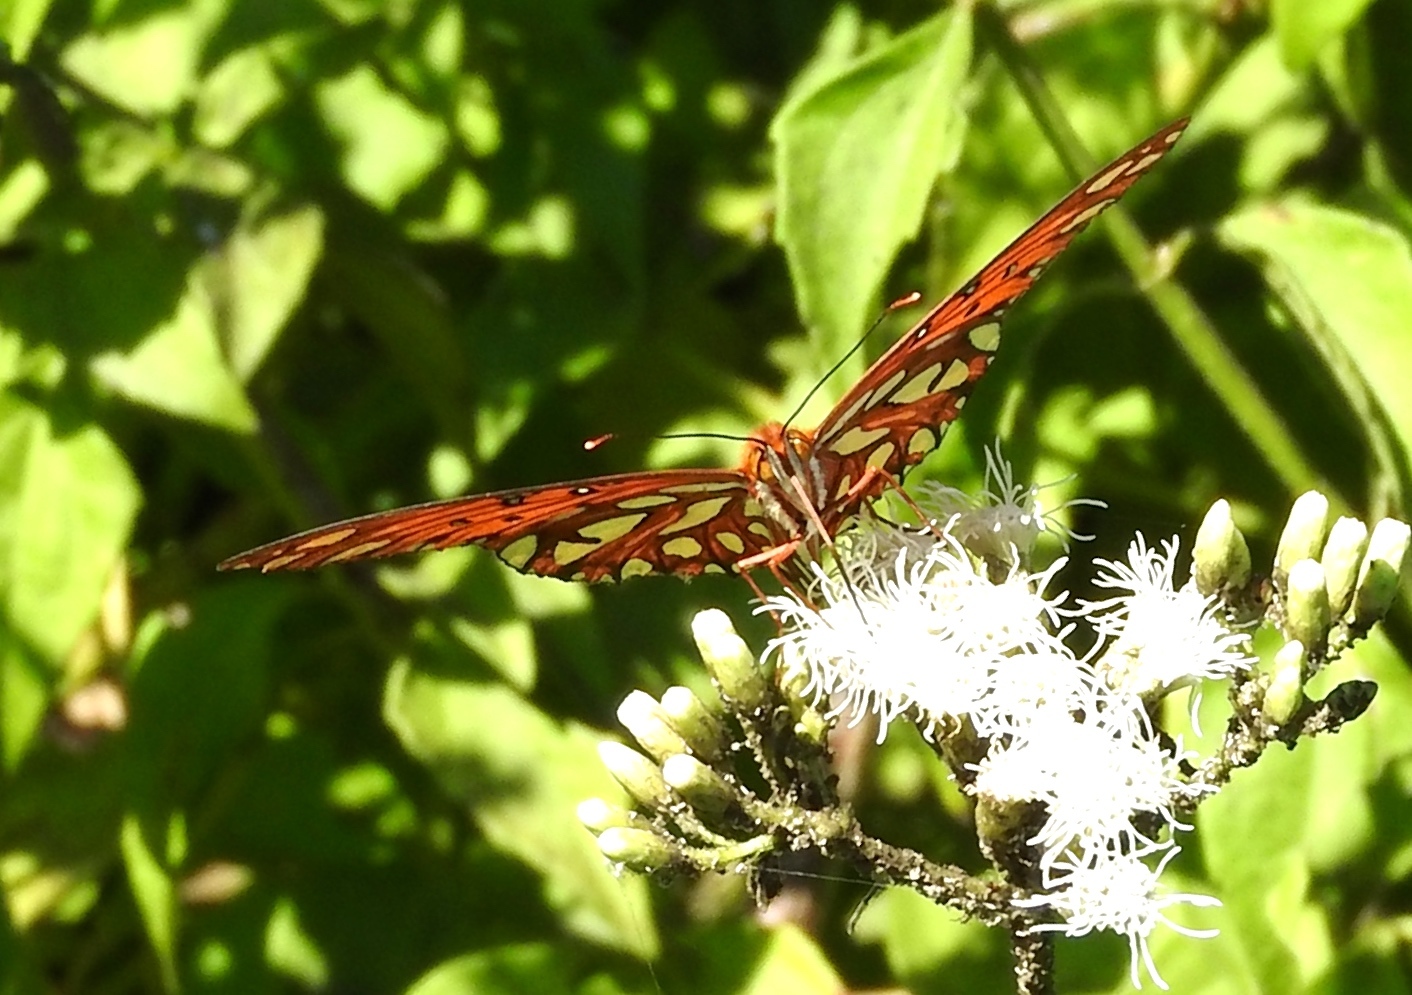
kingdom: Animalia
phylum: Arthropoda
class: Insecta
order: Lepidoptera
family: Nymphalidae
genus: Dione
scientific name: Dione vanillae
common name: Gulf fritillary
